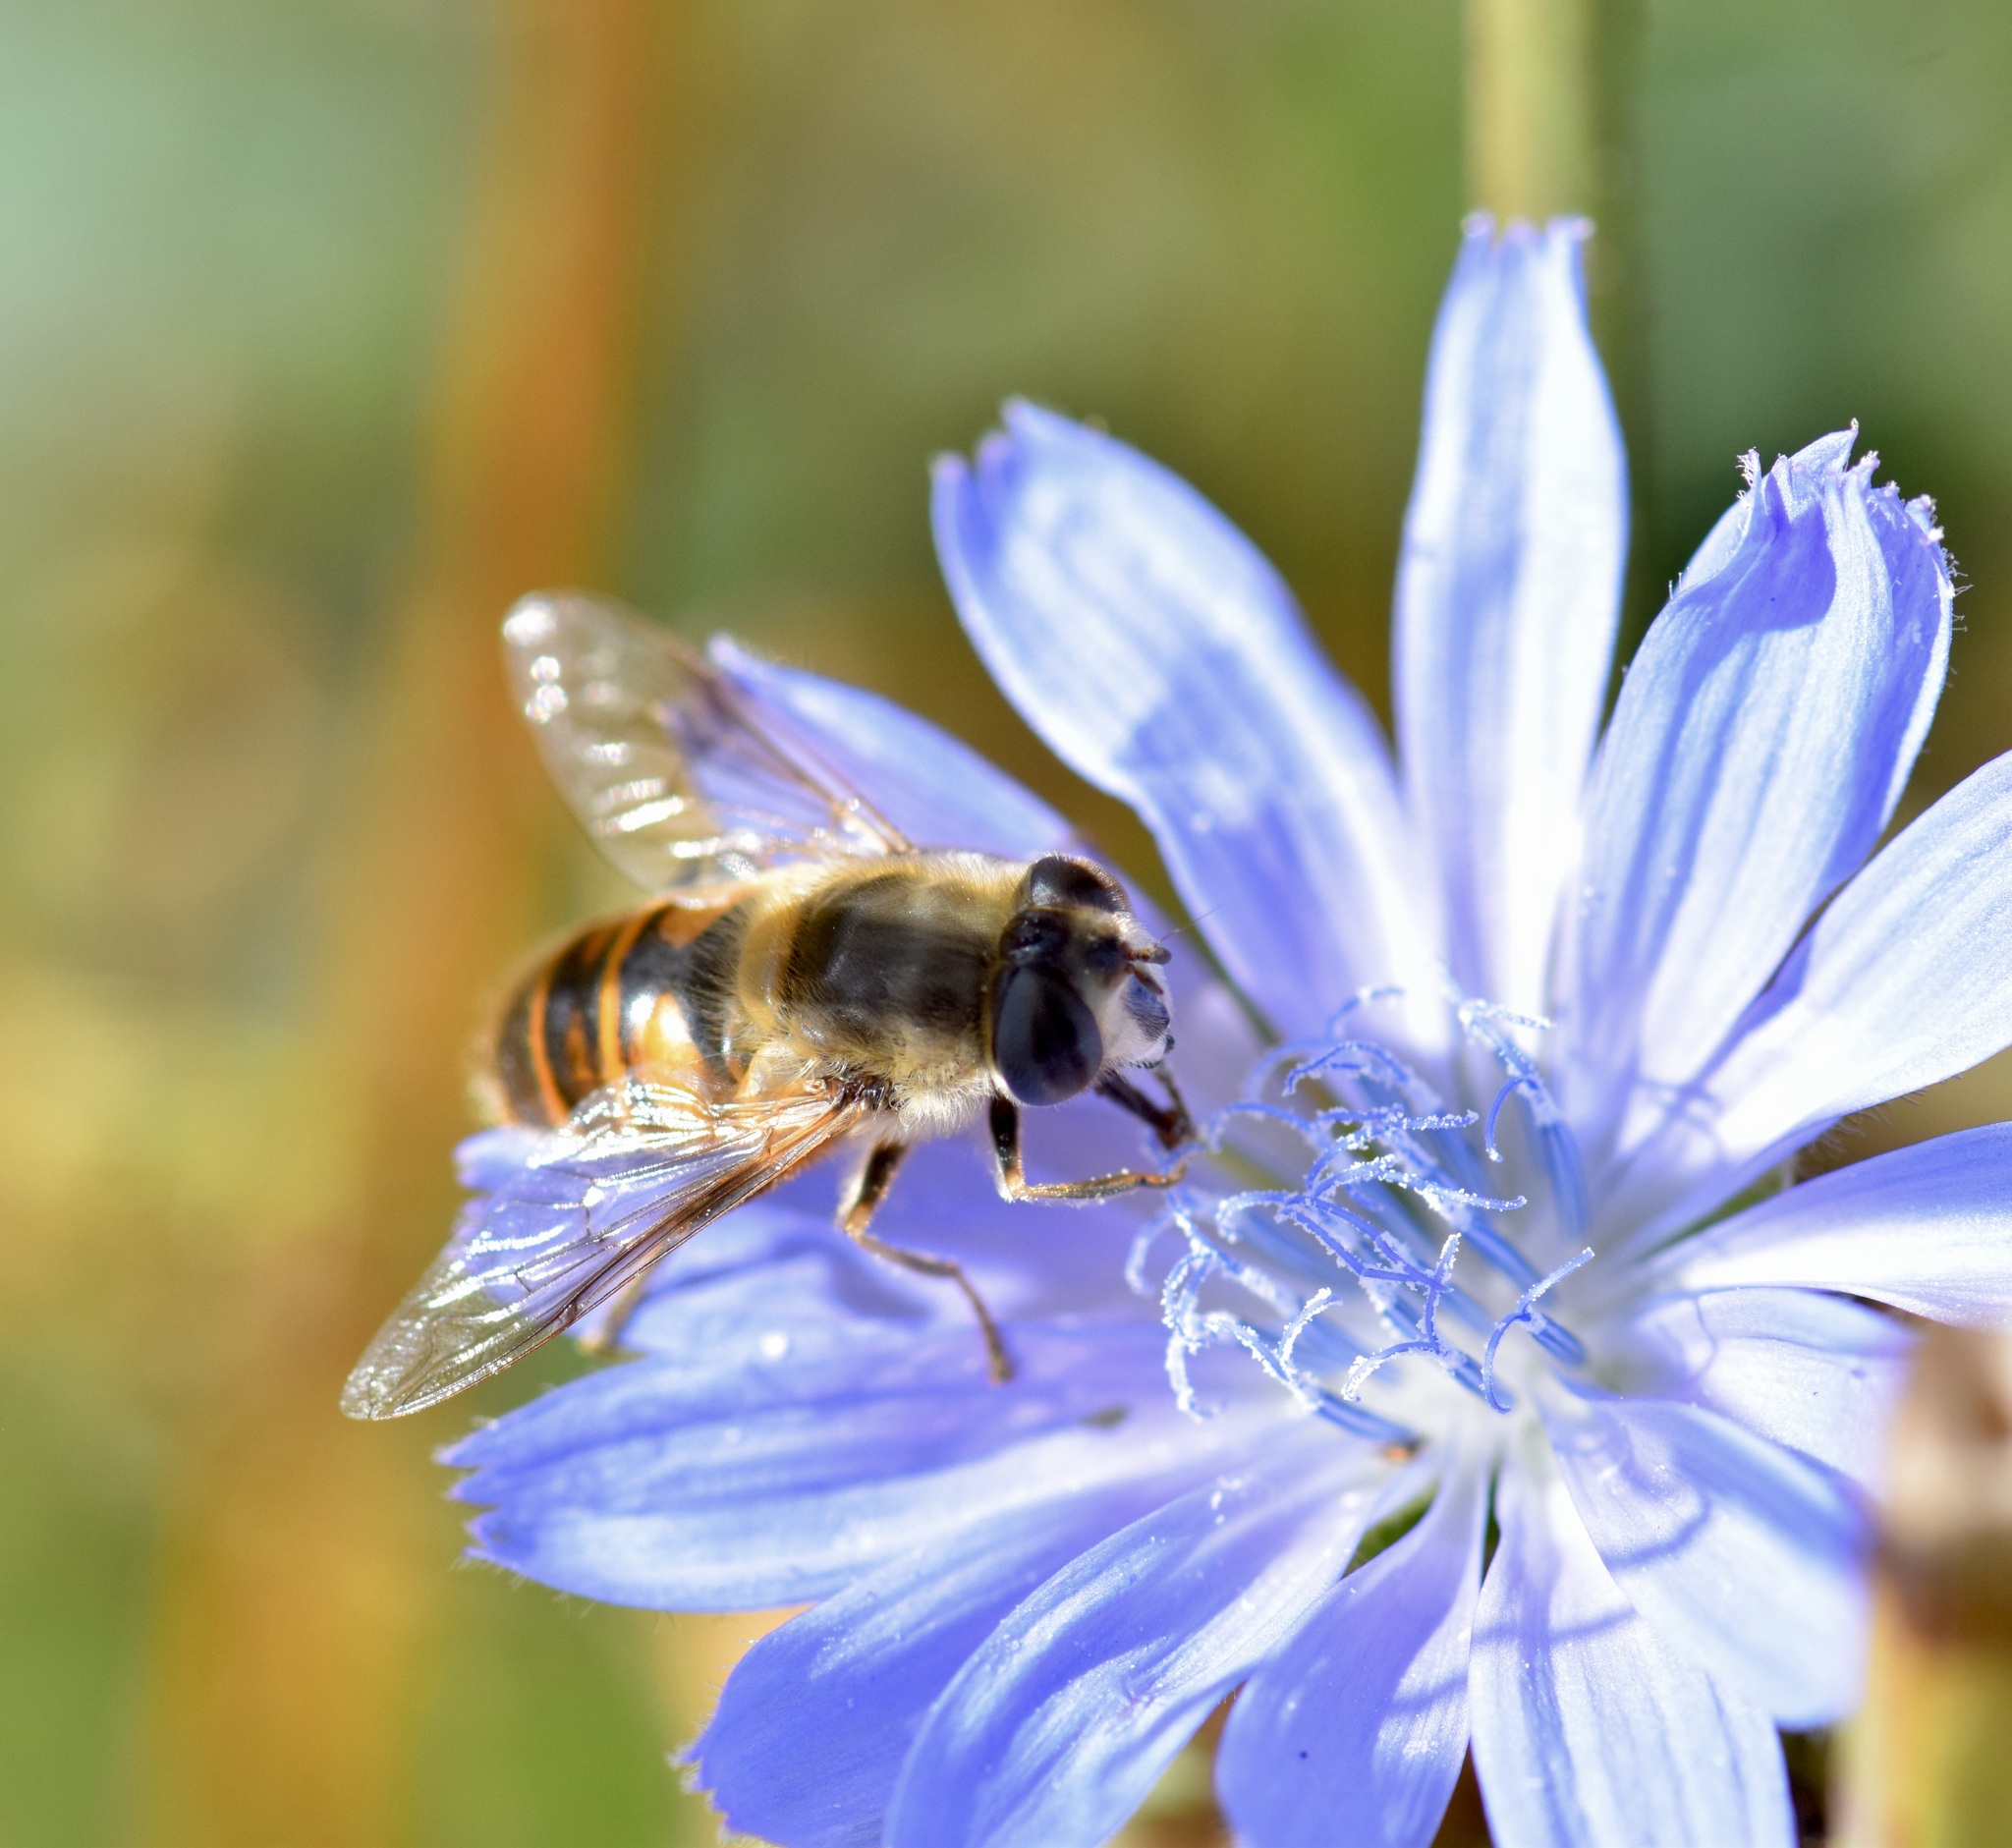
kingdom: Animalia
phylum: Arthropoda
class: Insecta
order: Diptera
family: Syrphidae
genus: Eristalis
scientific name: Eristalis tenax
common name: Drone fly
